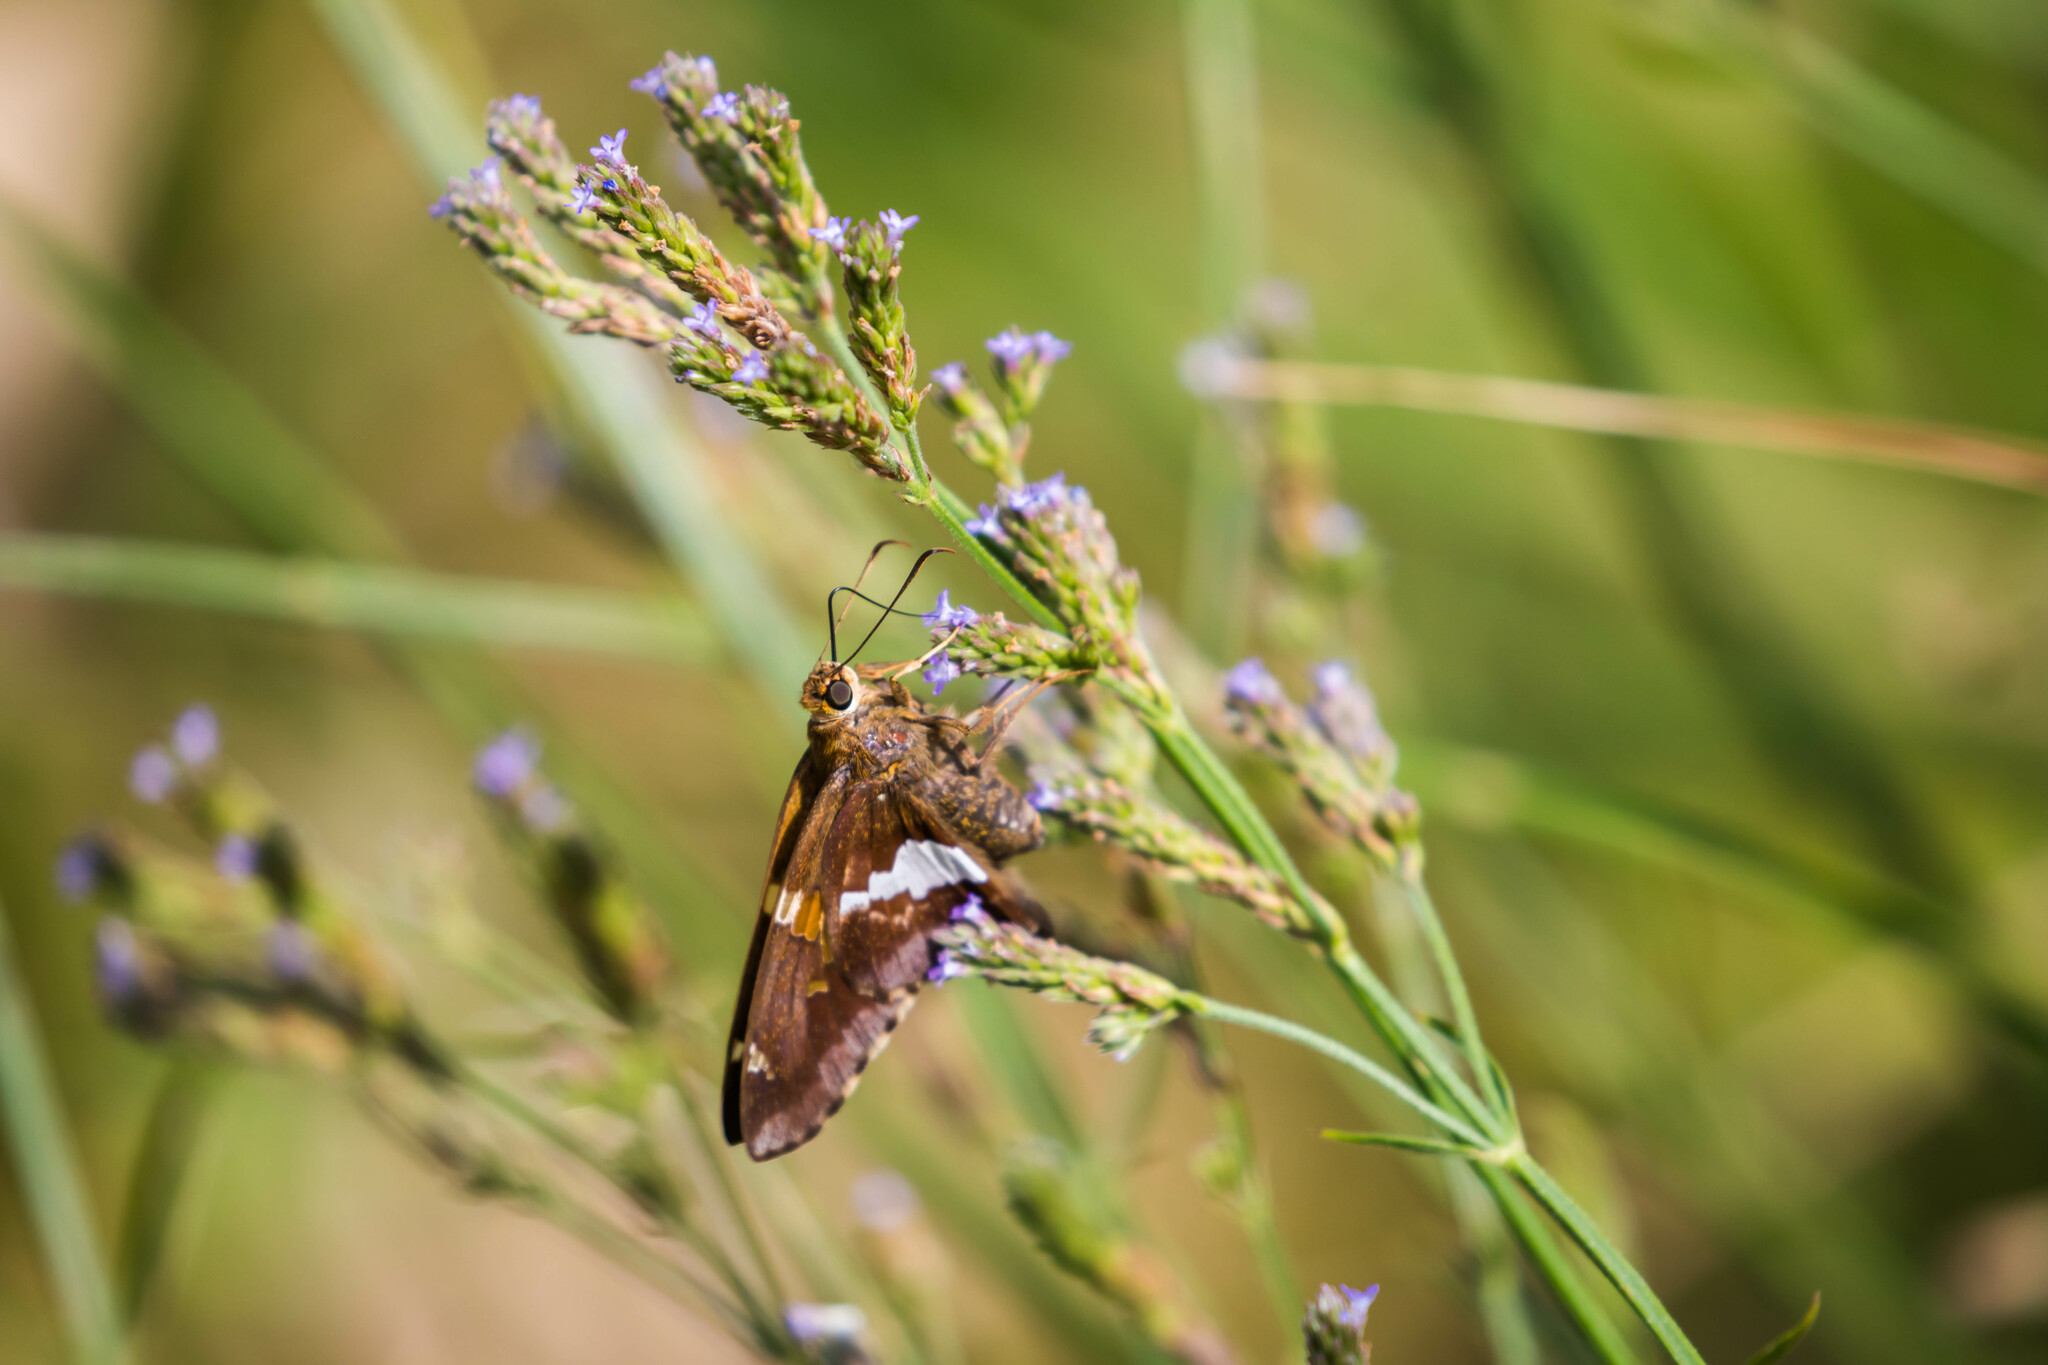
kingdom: Animalia
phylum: Arthropoda
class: Insecta
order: Lepidoptera
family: Hesperiidae
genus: Epargyreus
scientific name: Epargyreus clarus
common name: Silver-spotted skipper
